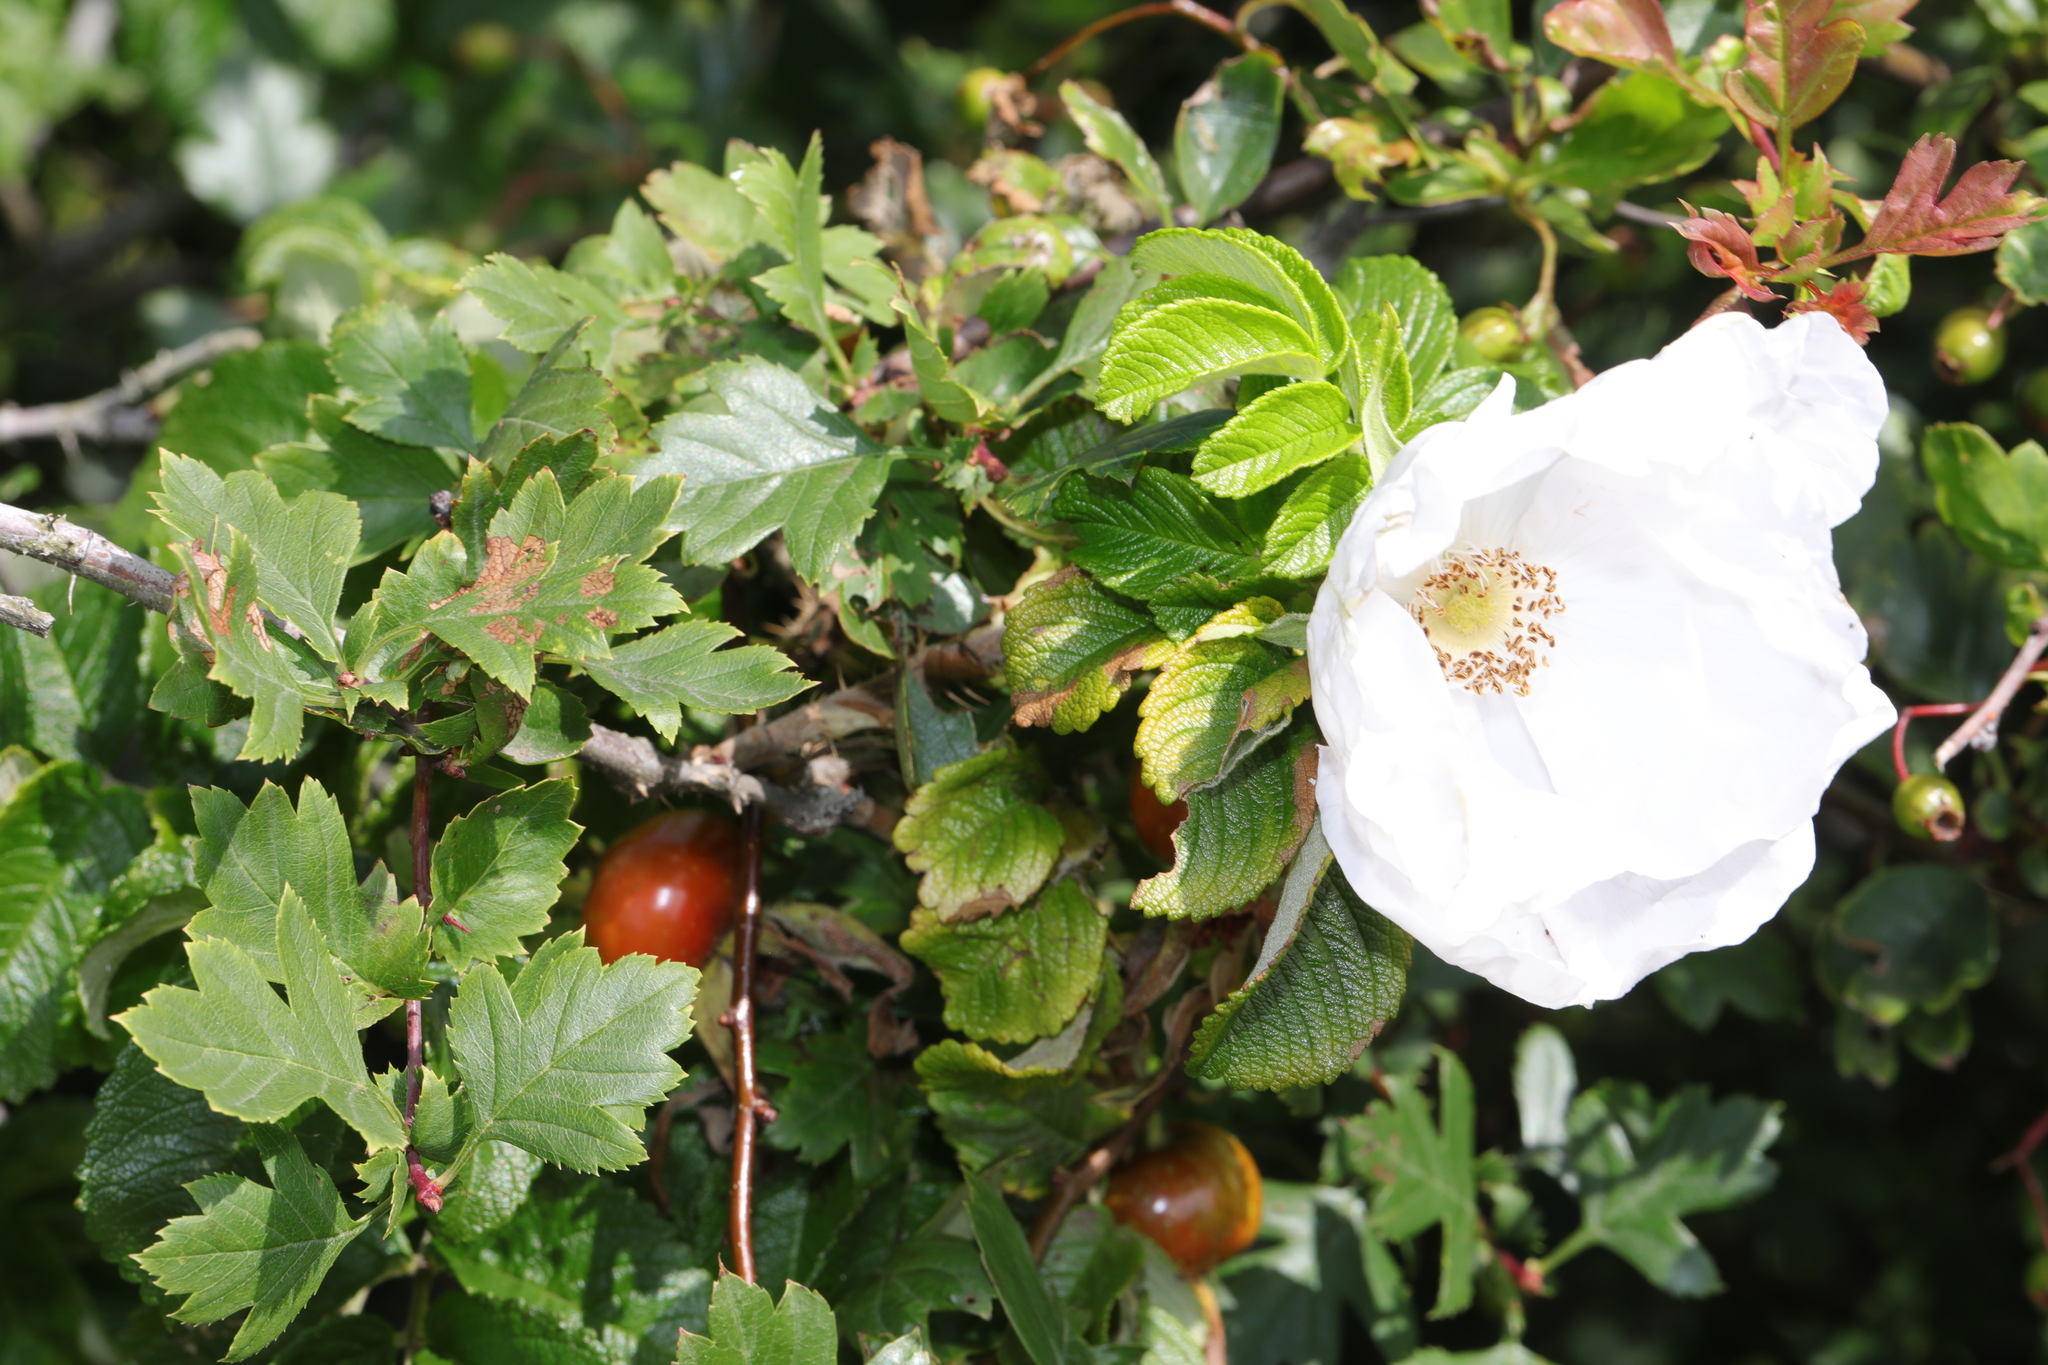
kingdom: Plantae
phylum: Tracheophyta
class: Magnoliopsida
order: Rosales
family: Rosaceae
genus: Rosa
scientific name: Rosa rugosa
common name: Japanese rose
